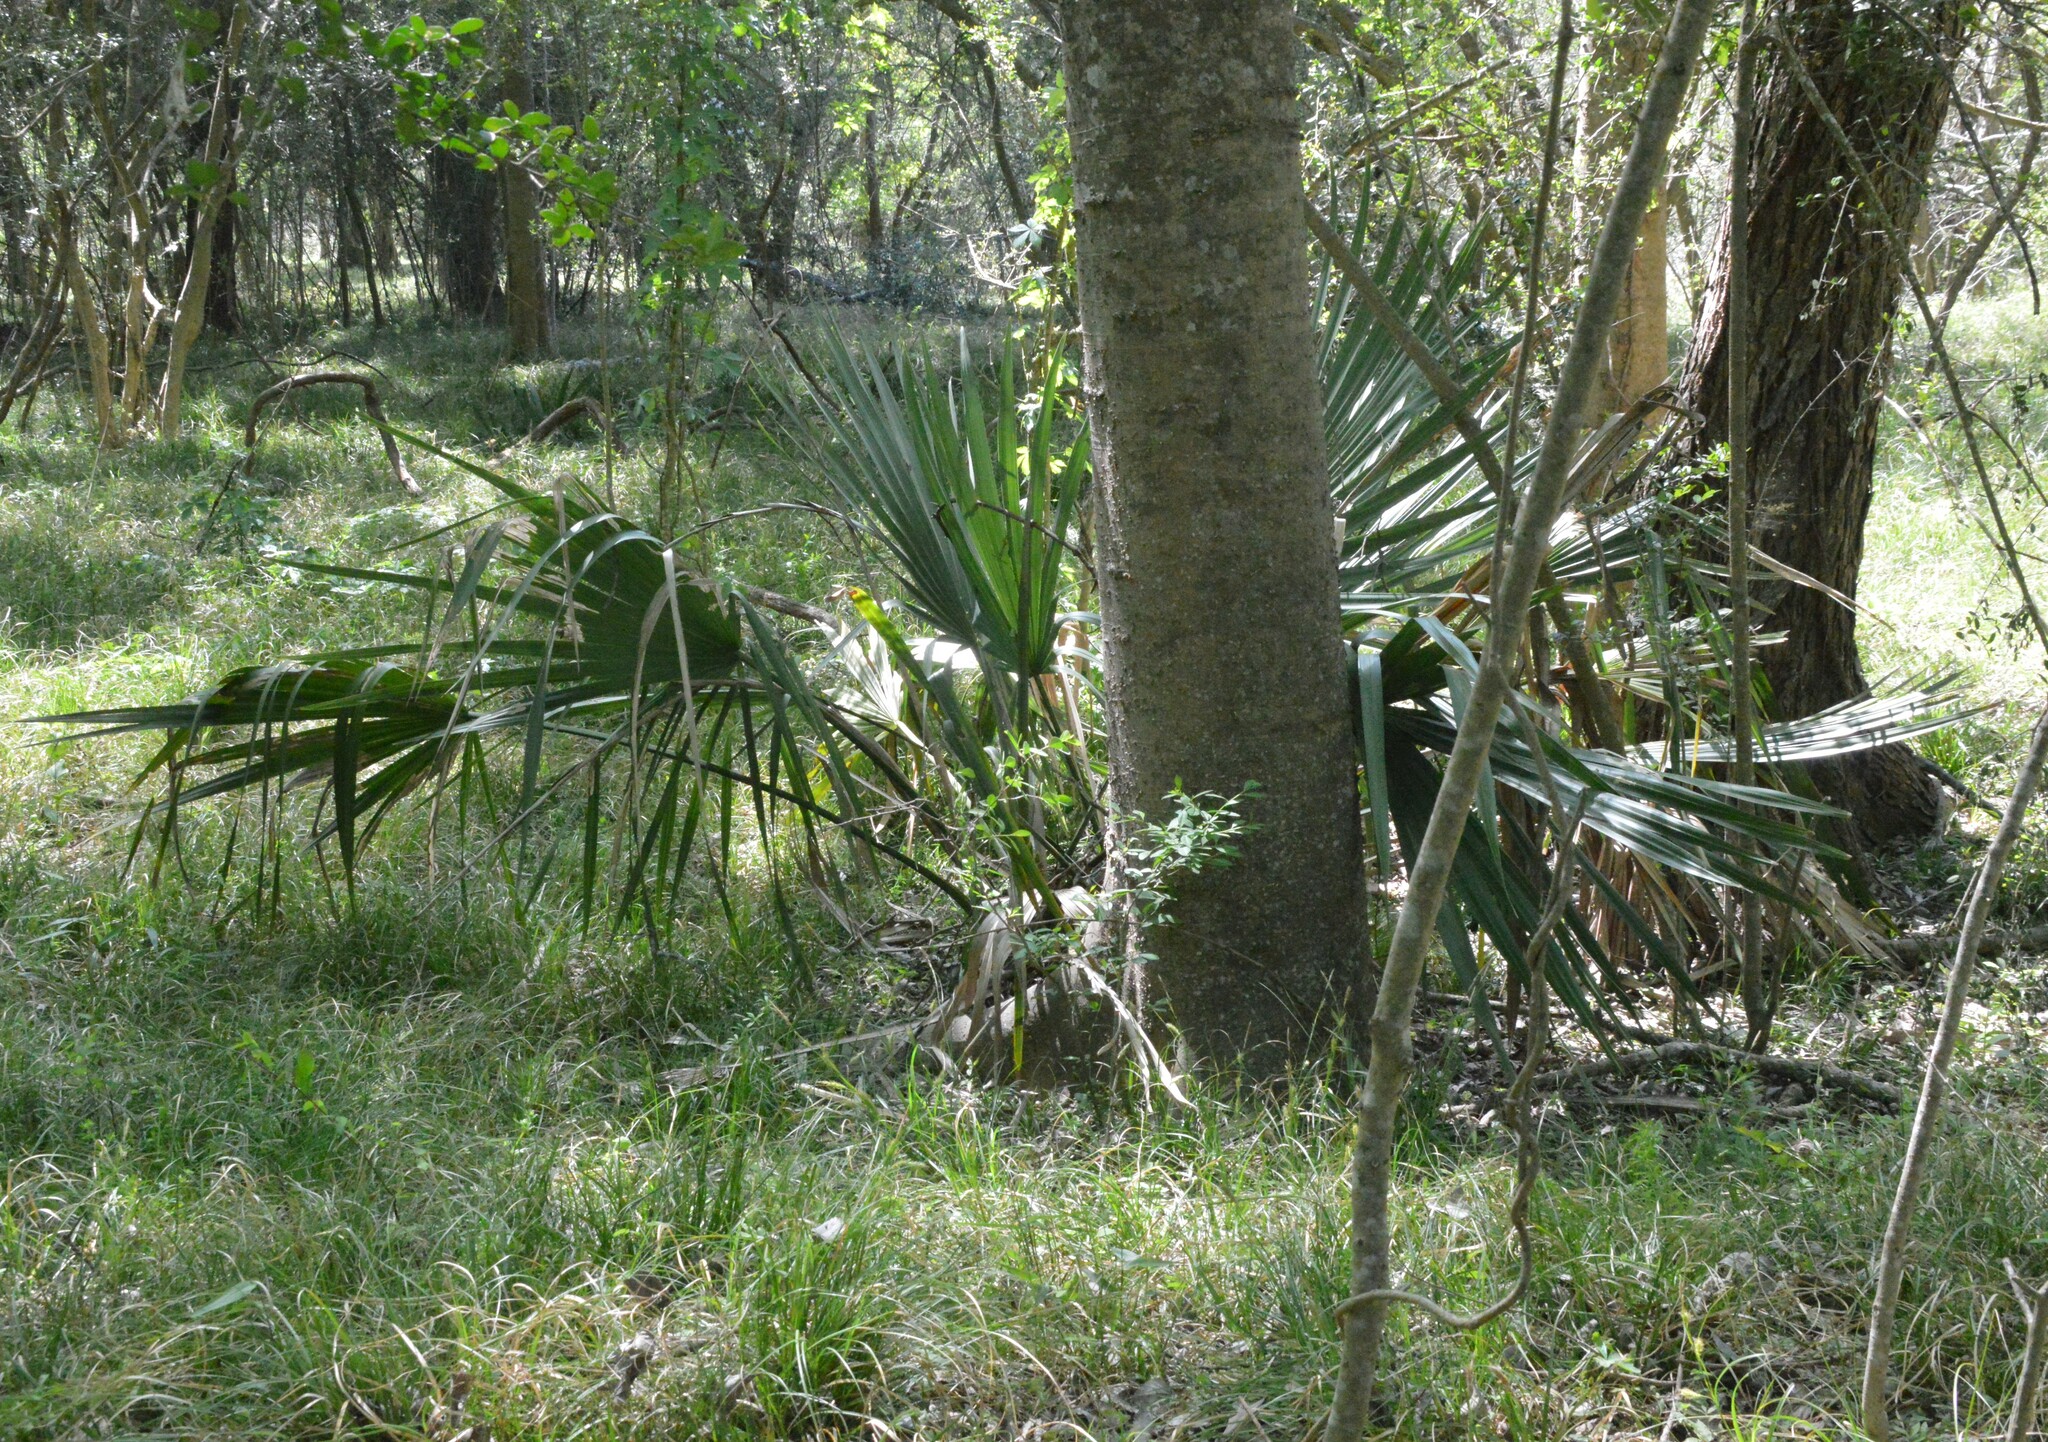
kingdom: Plantae
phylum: Tracheophyta
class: Liliopsida
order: Arecales
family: Arecaceae
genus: Sabal
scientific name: Sabal minor
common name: Dwarf palmetto
